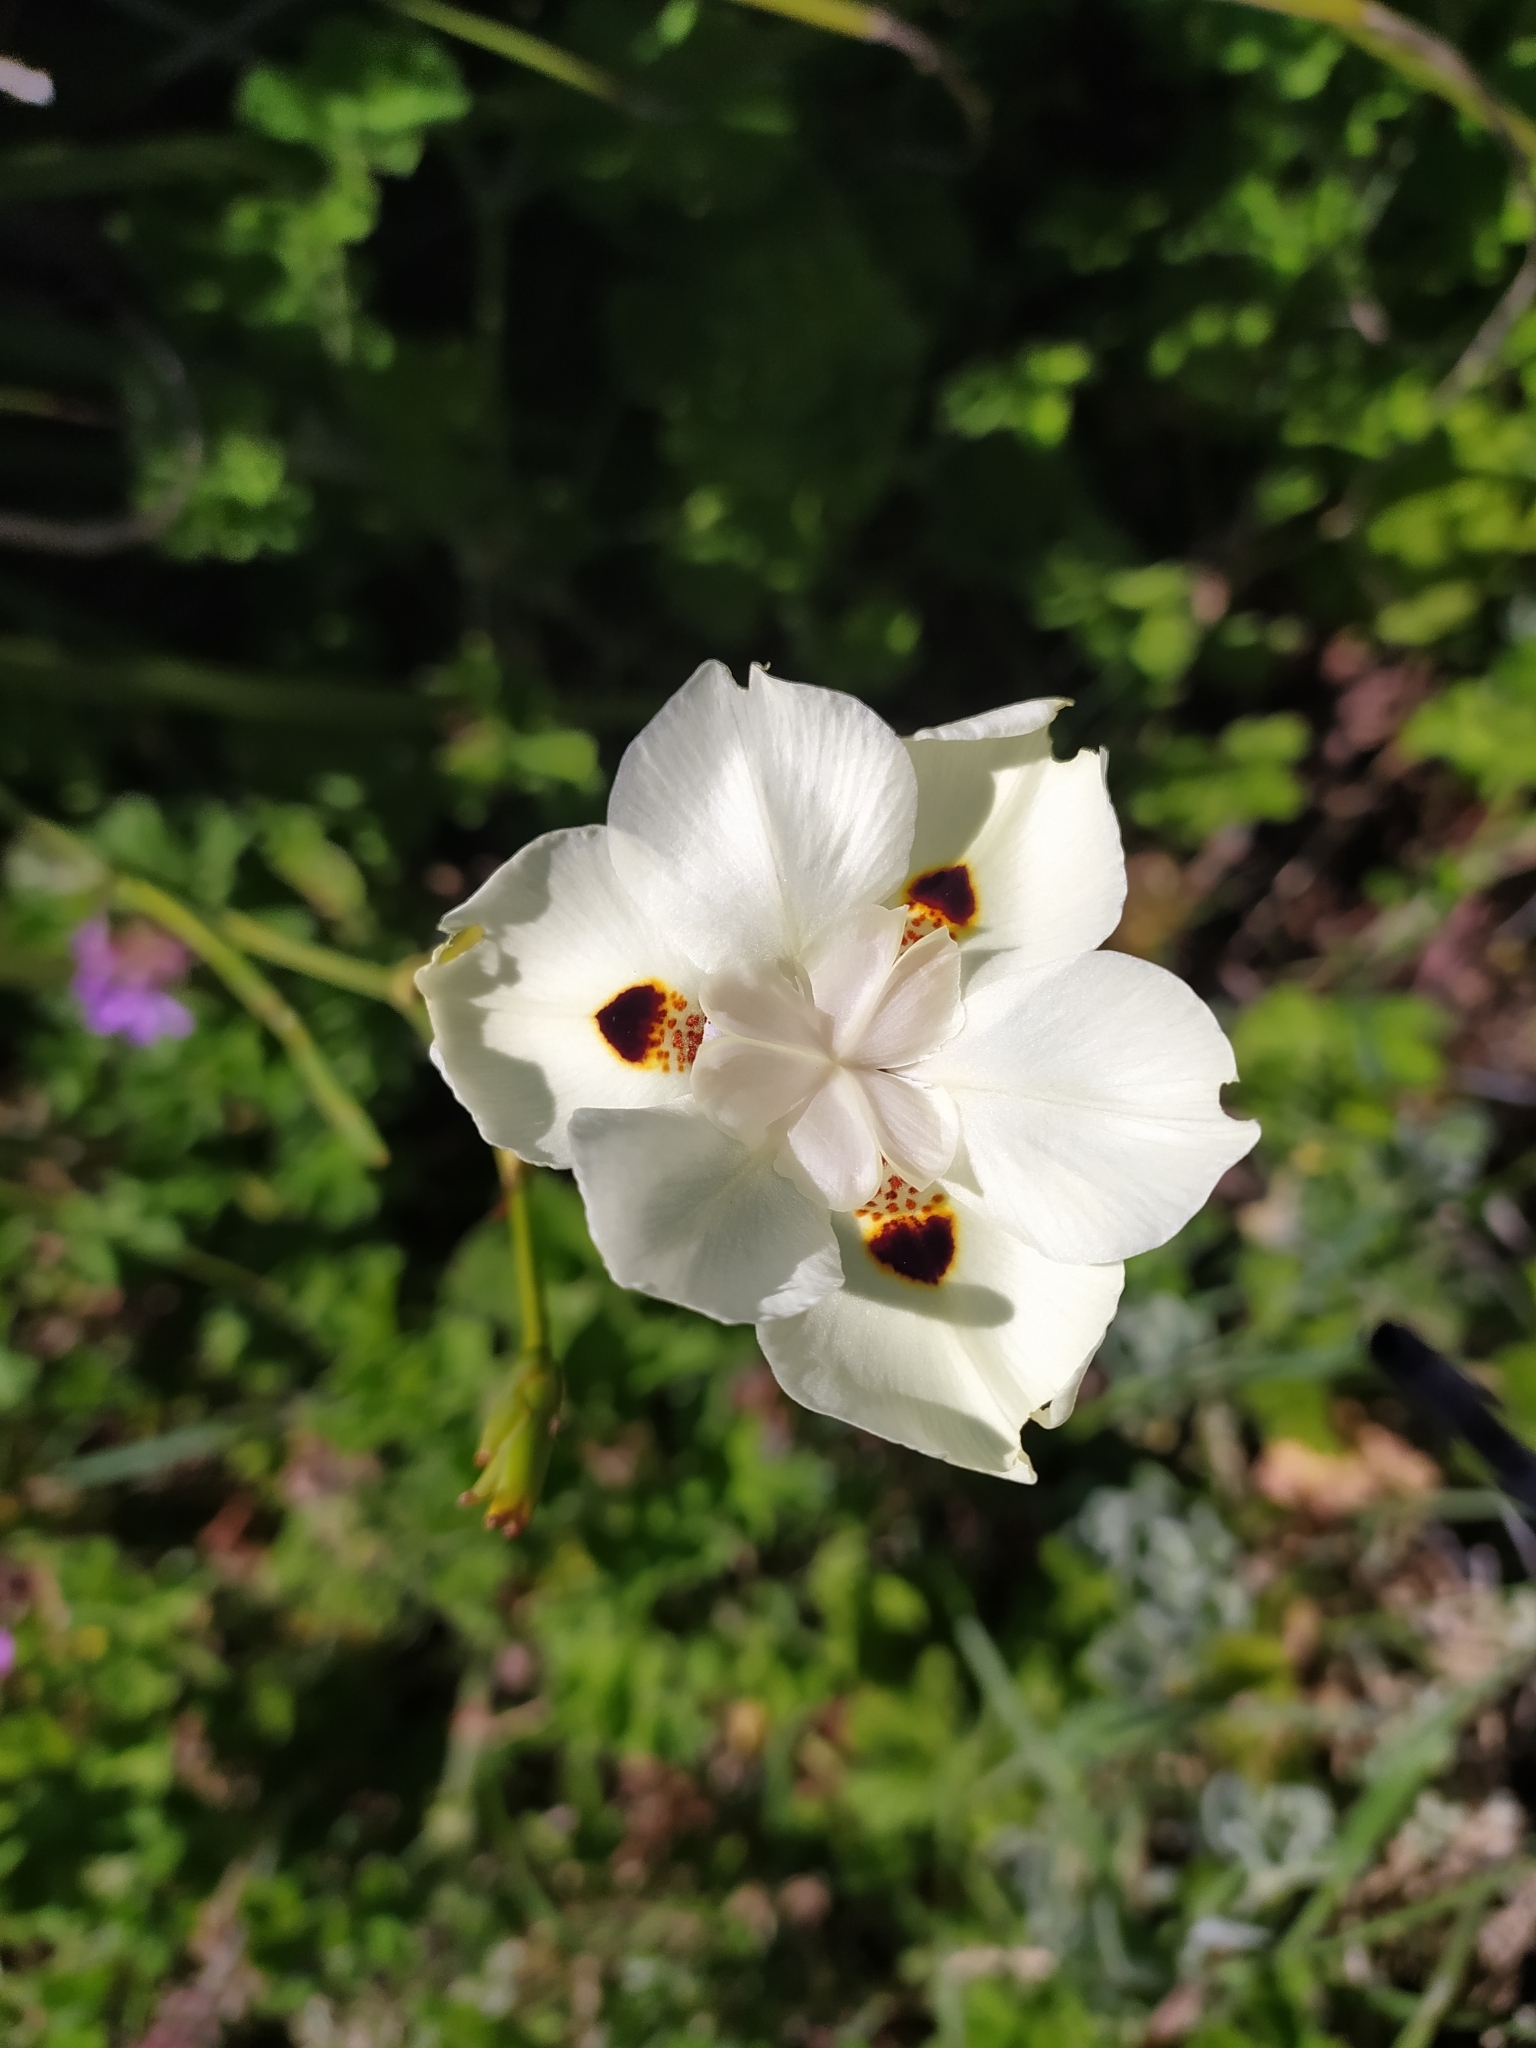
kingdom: Plantae
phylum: Tracheophyta
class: Liliopsida
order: Asparagales
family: Iridaceae
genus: Dietes
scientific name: Dietes bicolor
